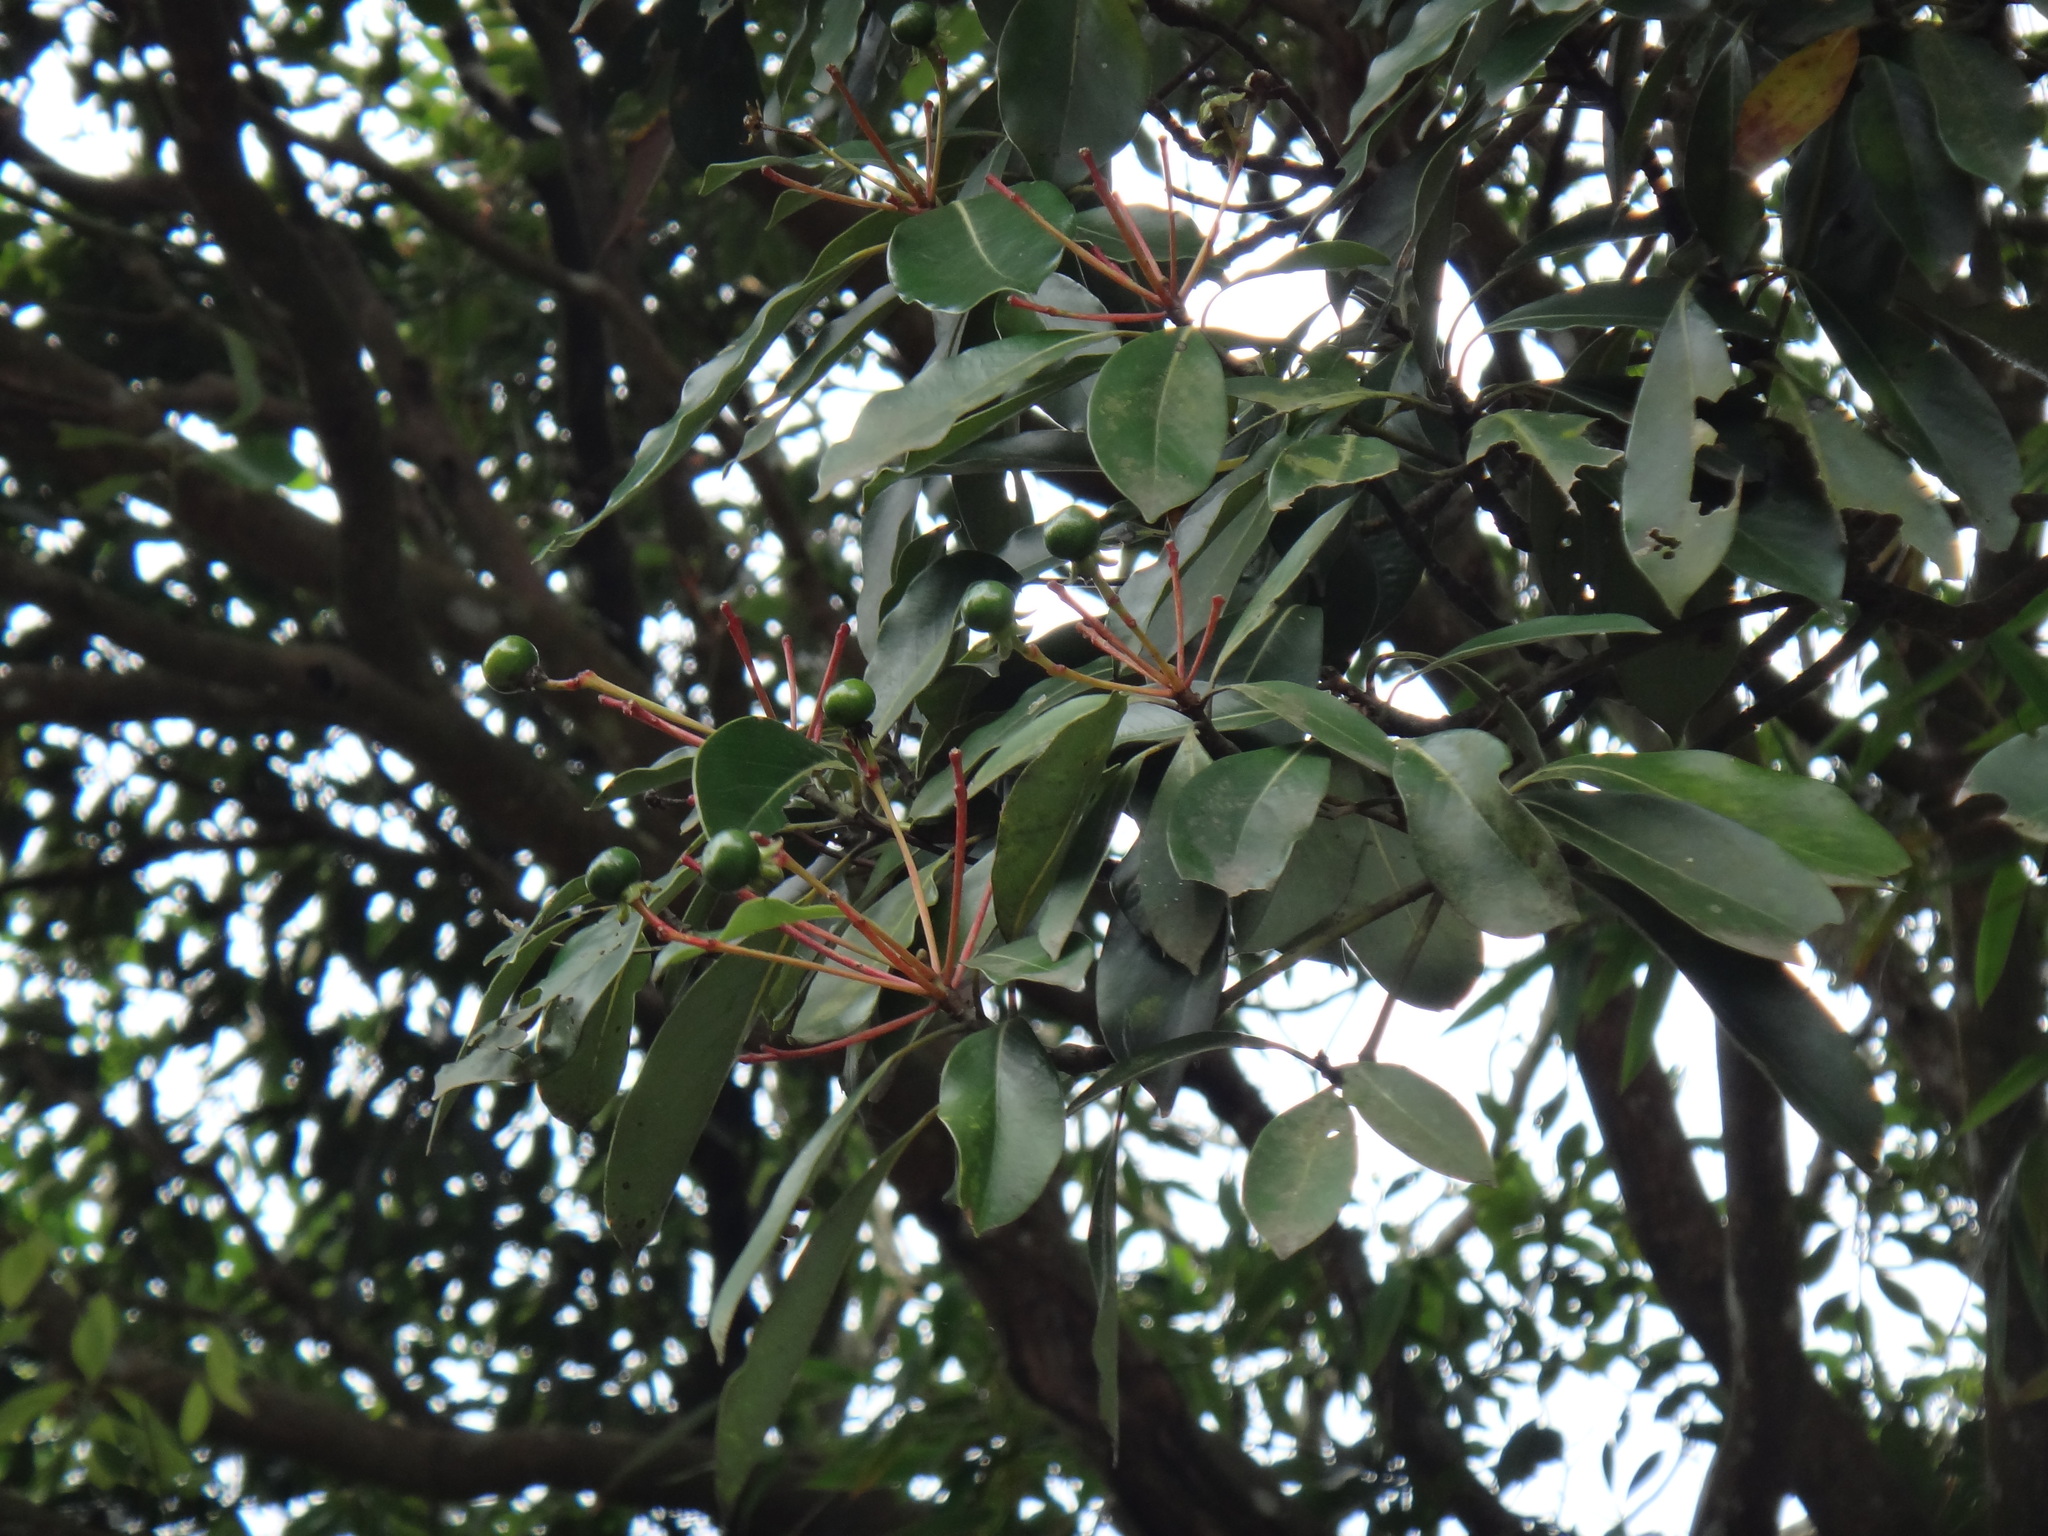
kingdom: Plantae
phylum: Tracheophyta
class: Magnoliopsida
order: Laurales
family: Lauraceae
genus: Machilus
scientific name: Machilus thunbergii
